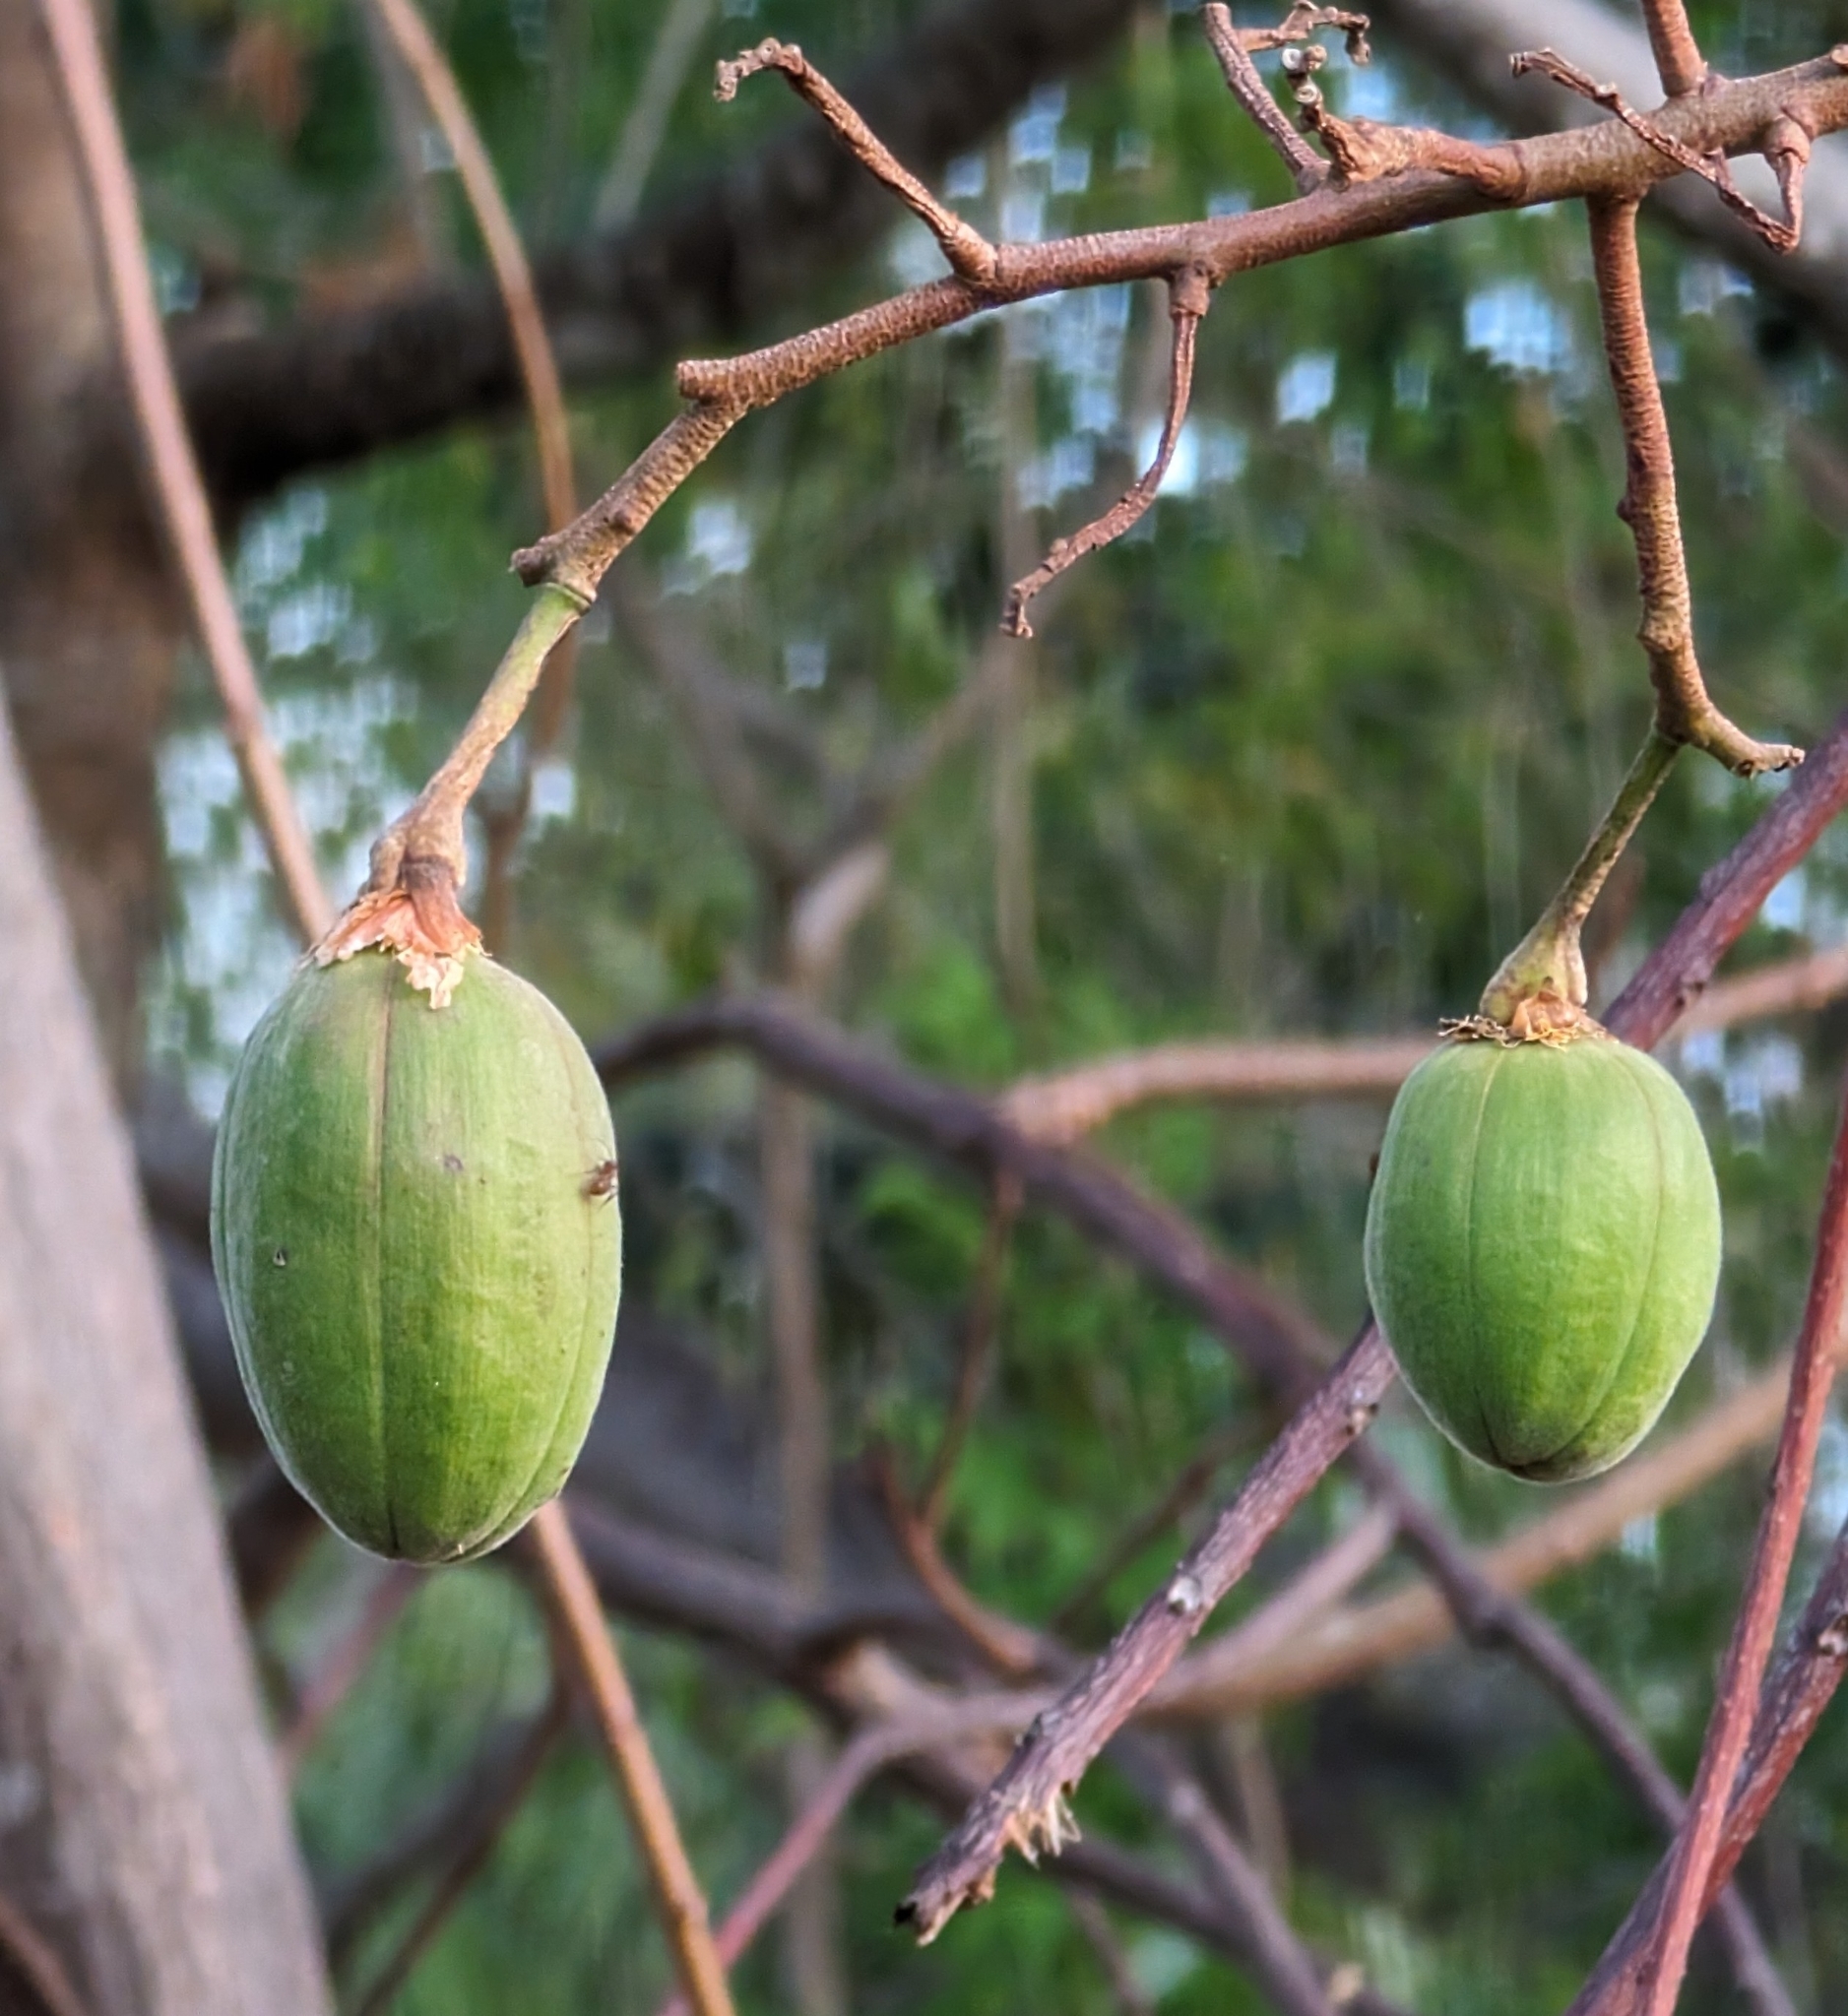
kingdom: Plantae
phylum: Tracheophyta
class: Magnoliopsida
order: Malvales
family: Cochlospermaceae
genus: Cochlospermum
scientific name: Cochlospermum vitifolium
